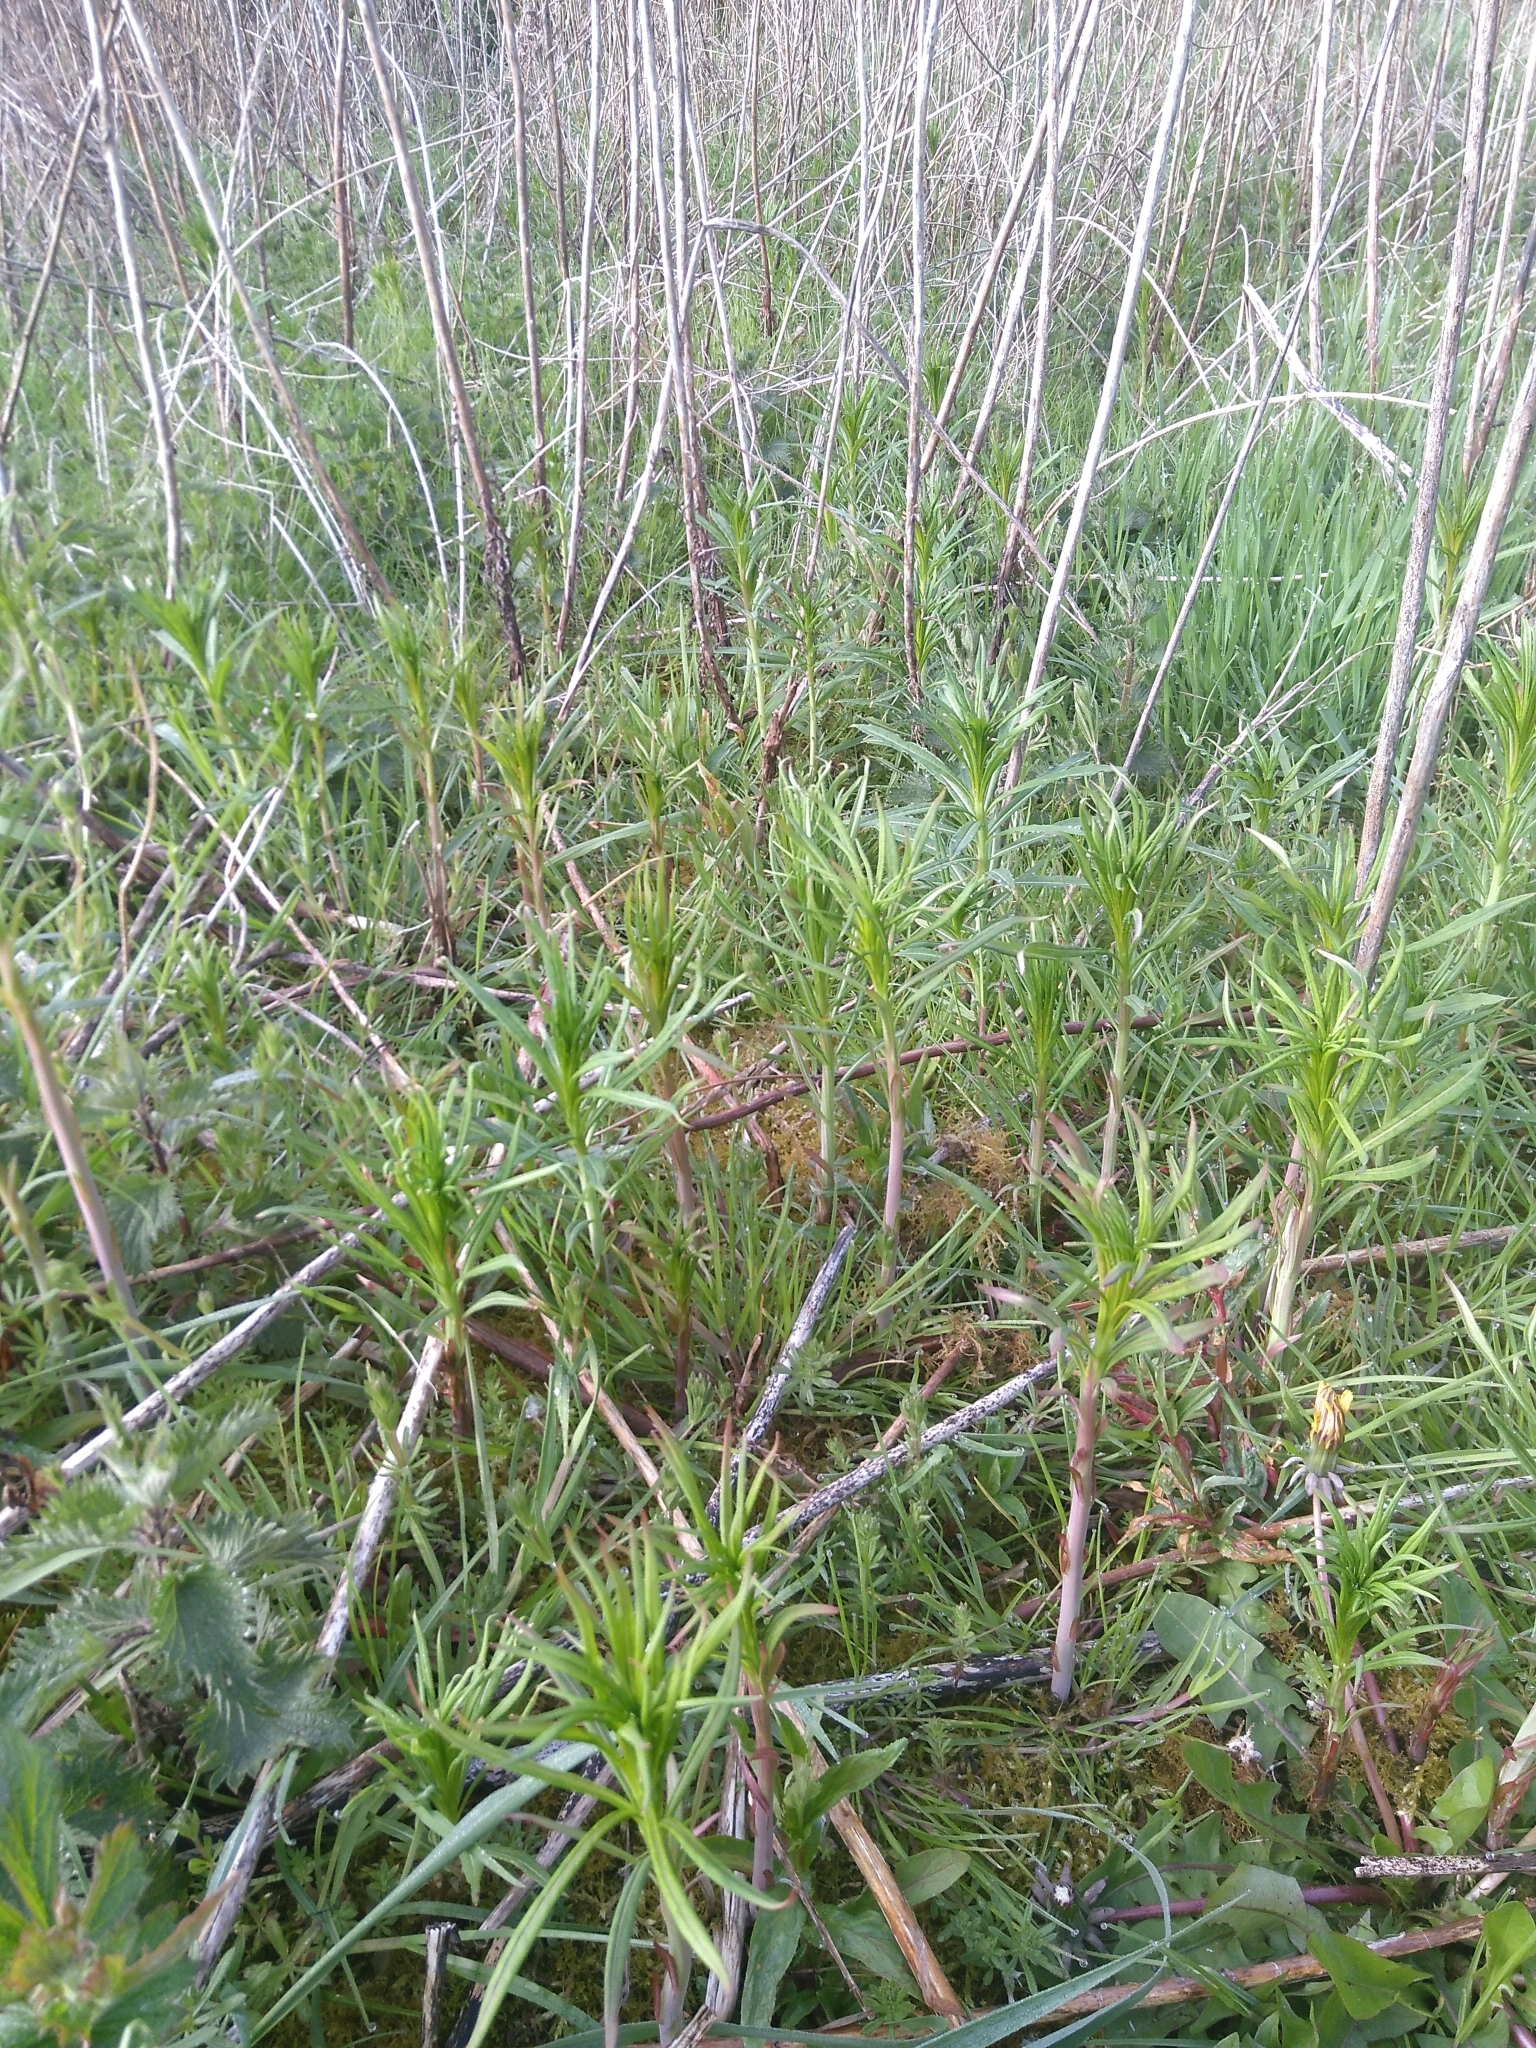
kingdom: Plantae
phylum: Tracheophyta
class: Magnoliopsida
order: Myrtales
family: Onagraceae
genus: Chamaenerion
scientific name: Chamaenerion angustifolium
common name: Fireweed
